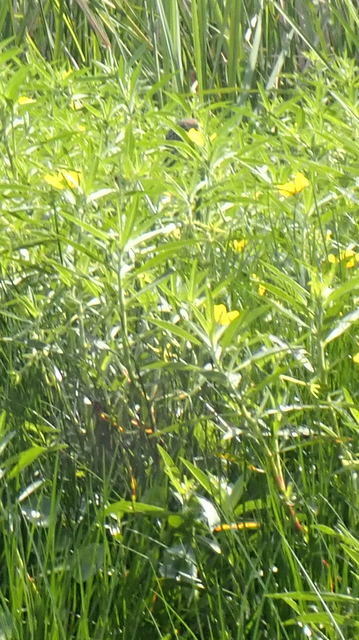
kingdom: Animalia
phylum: Chordata
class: Aves
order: Gruiformes
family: Aramidae
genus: Aramus
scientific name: Aramus guarauna
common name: Limpkin
